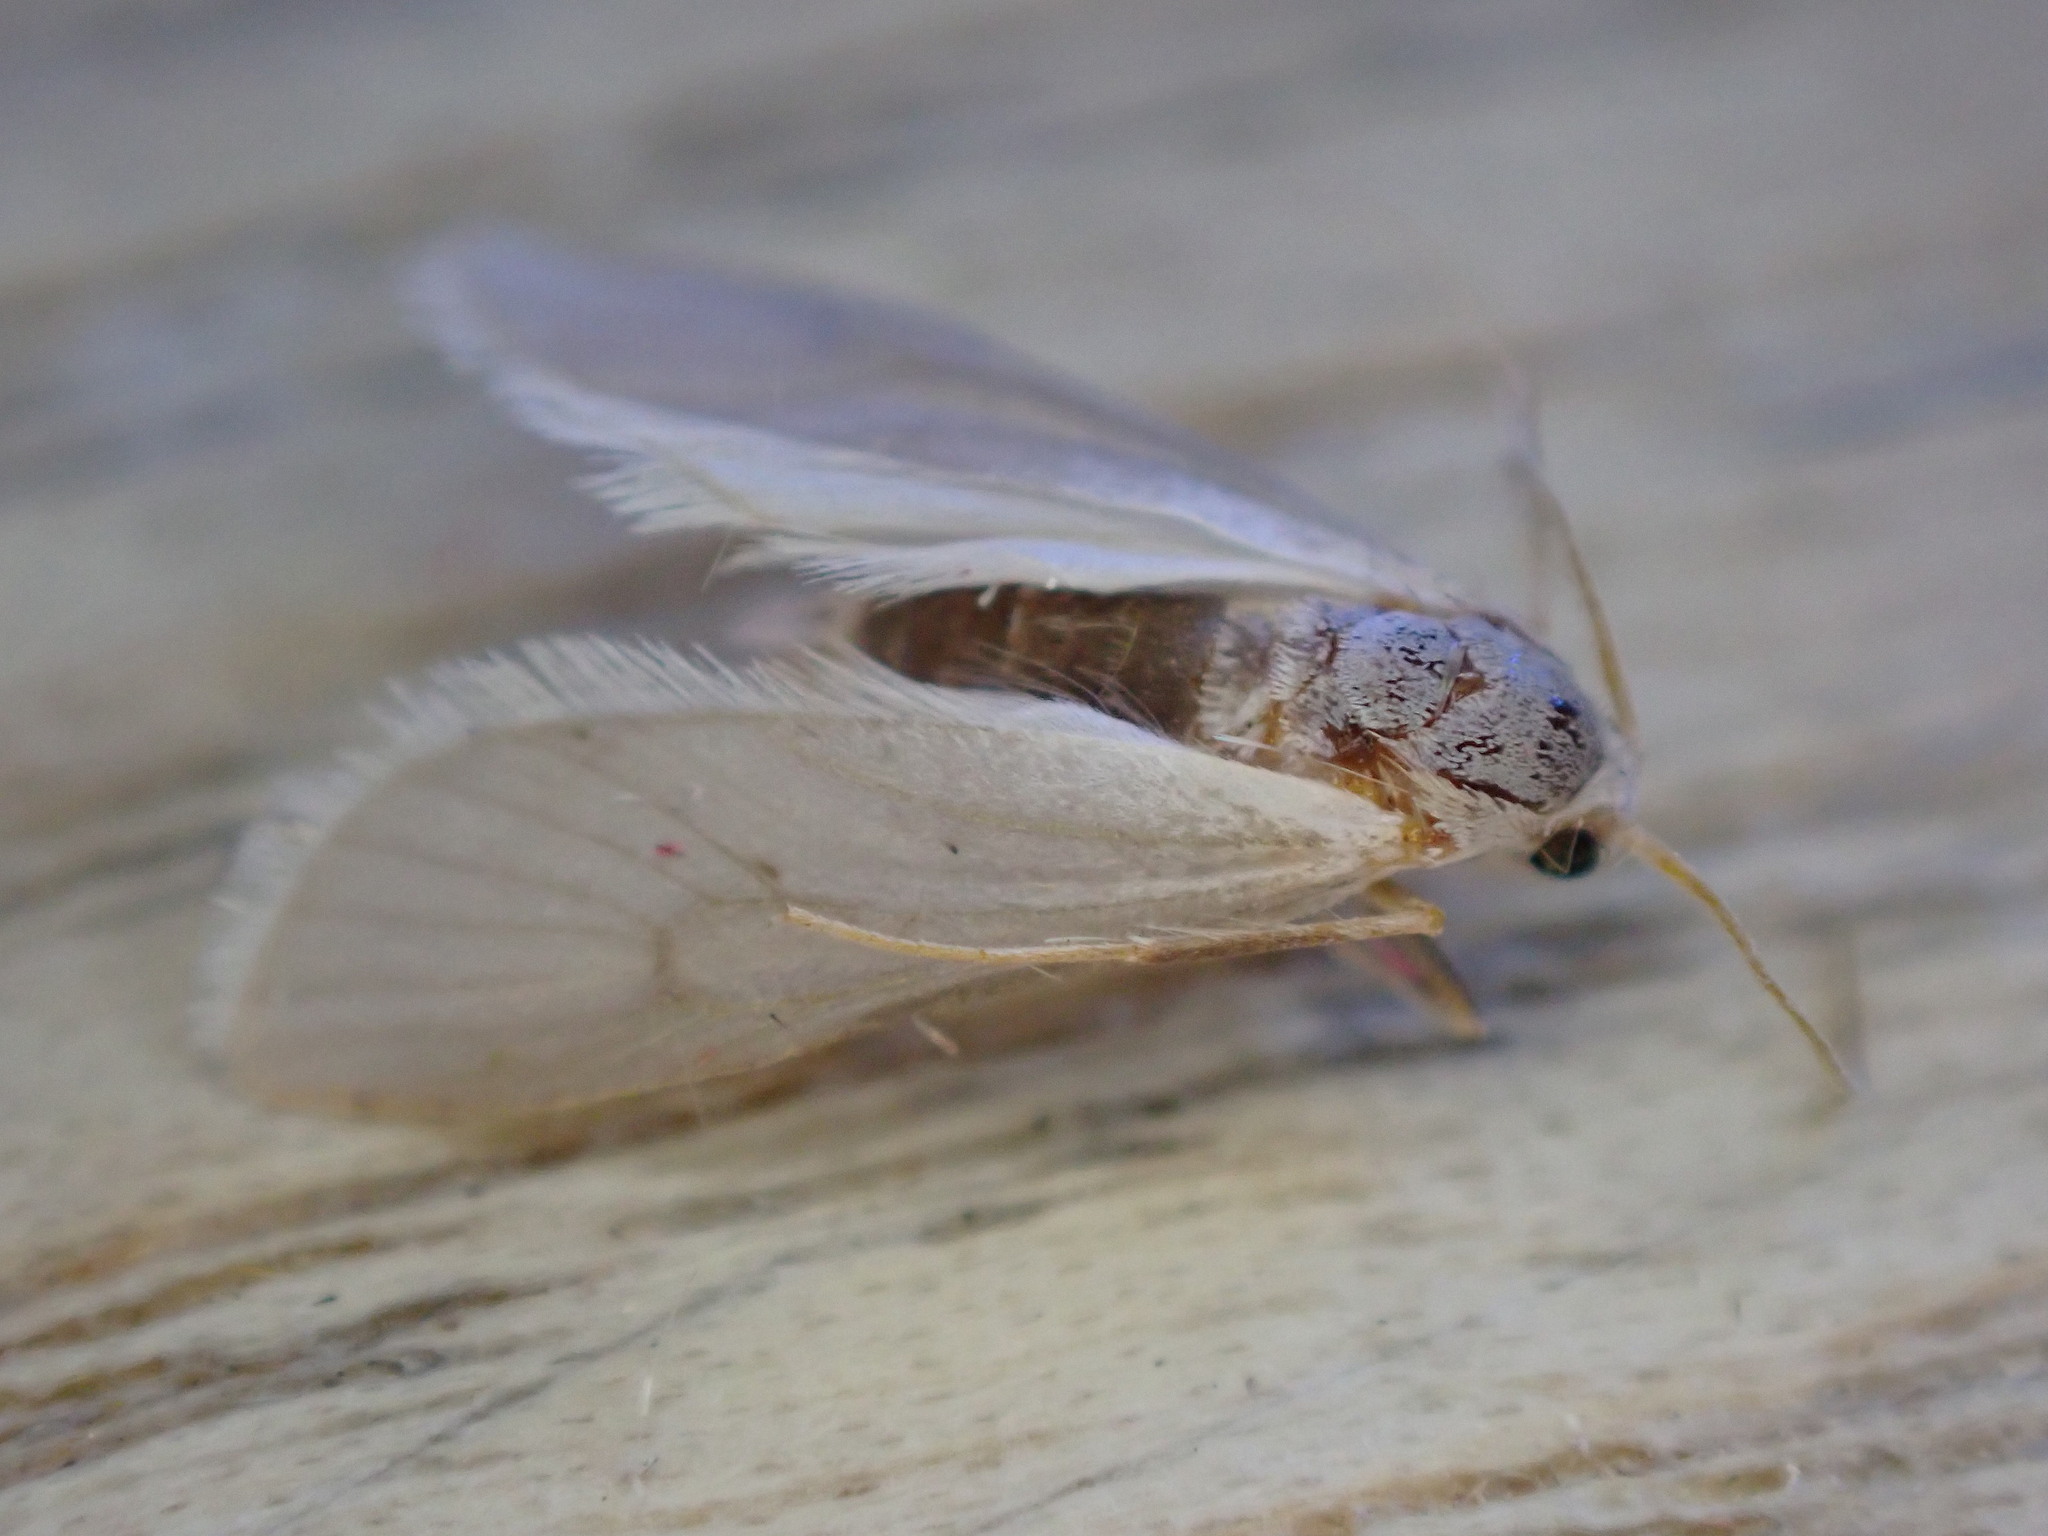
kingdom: Animalia
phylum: Arthropoda
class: Insecta
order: Lepidoptera
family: Crambidae
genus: Acentria
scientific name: Acentria ephemerella
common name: European water moth
